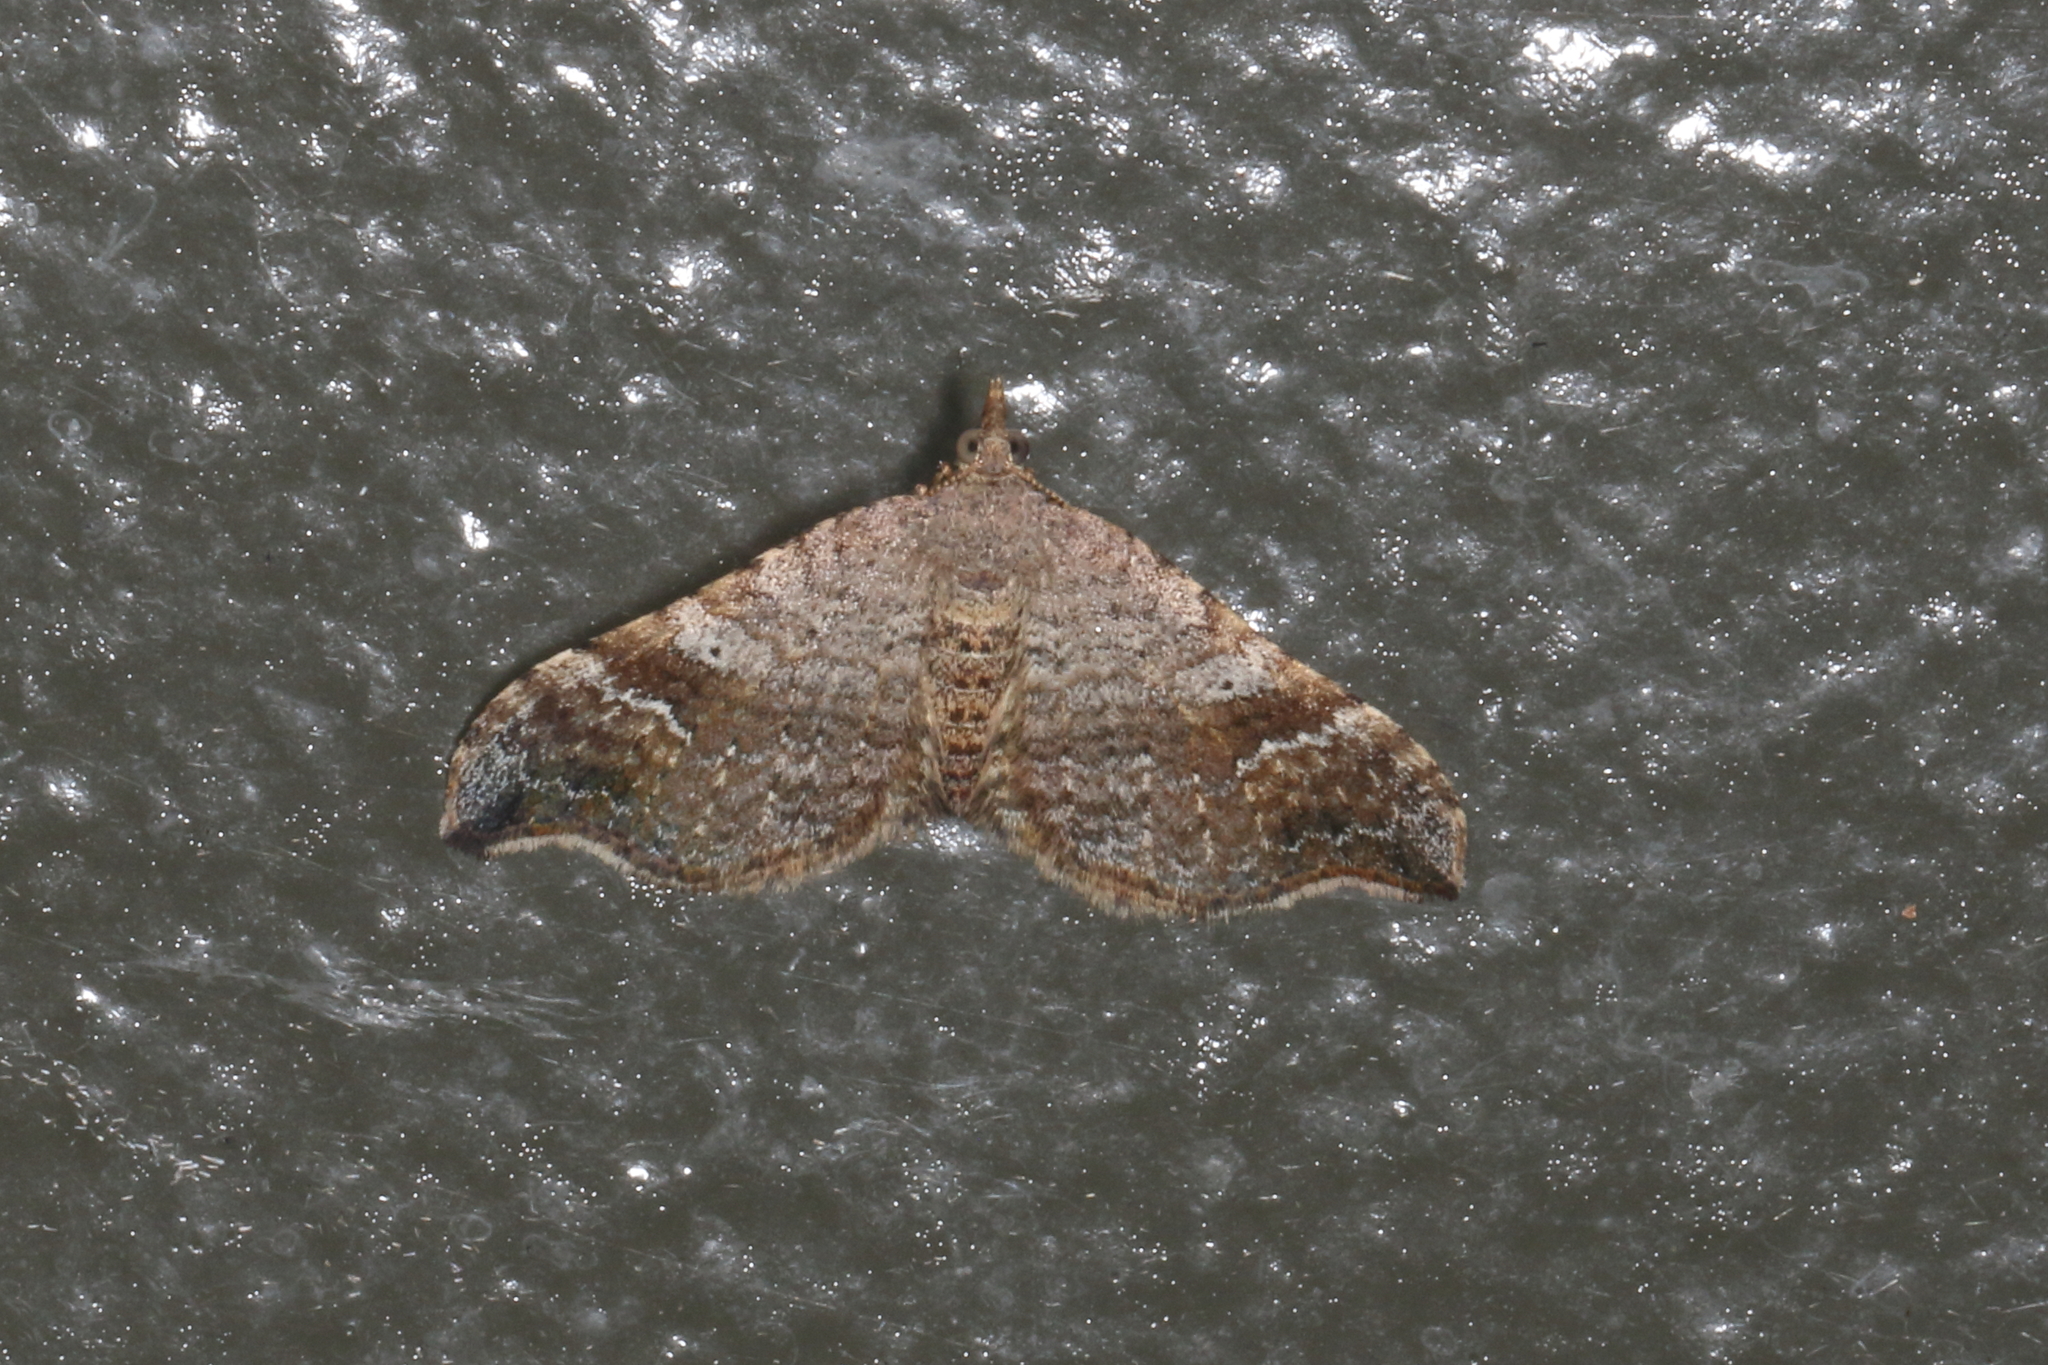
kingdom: Animalia
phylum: Arthropoda
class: Insecta
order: Lepidoptera
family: Geometridae
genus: Homodotis
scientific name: Homodotis megaspilata
